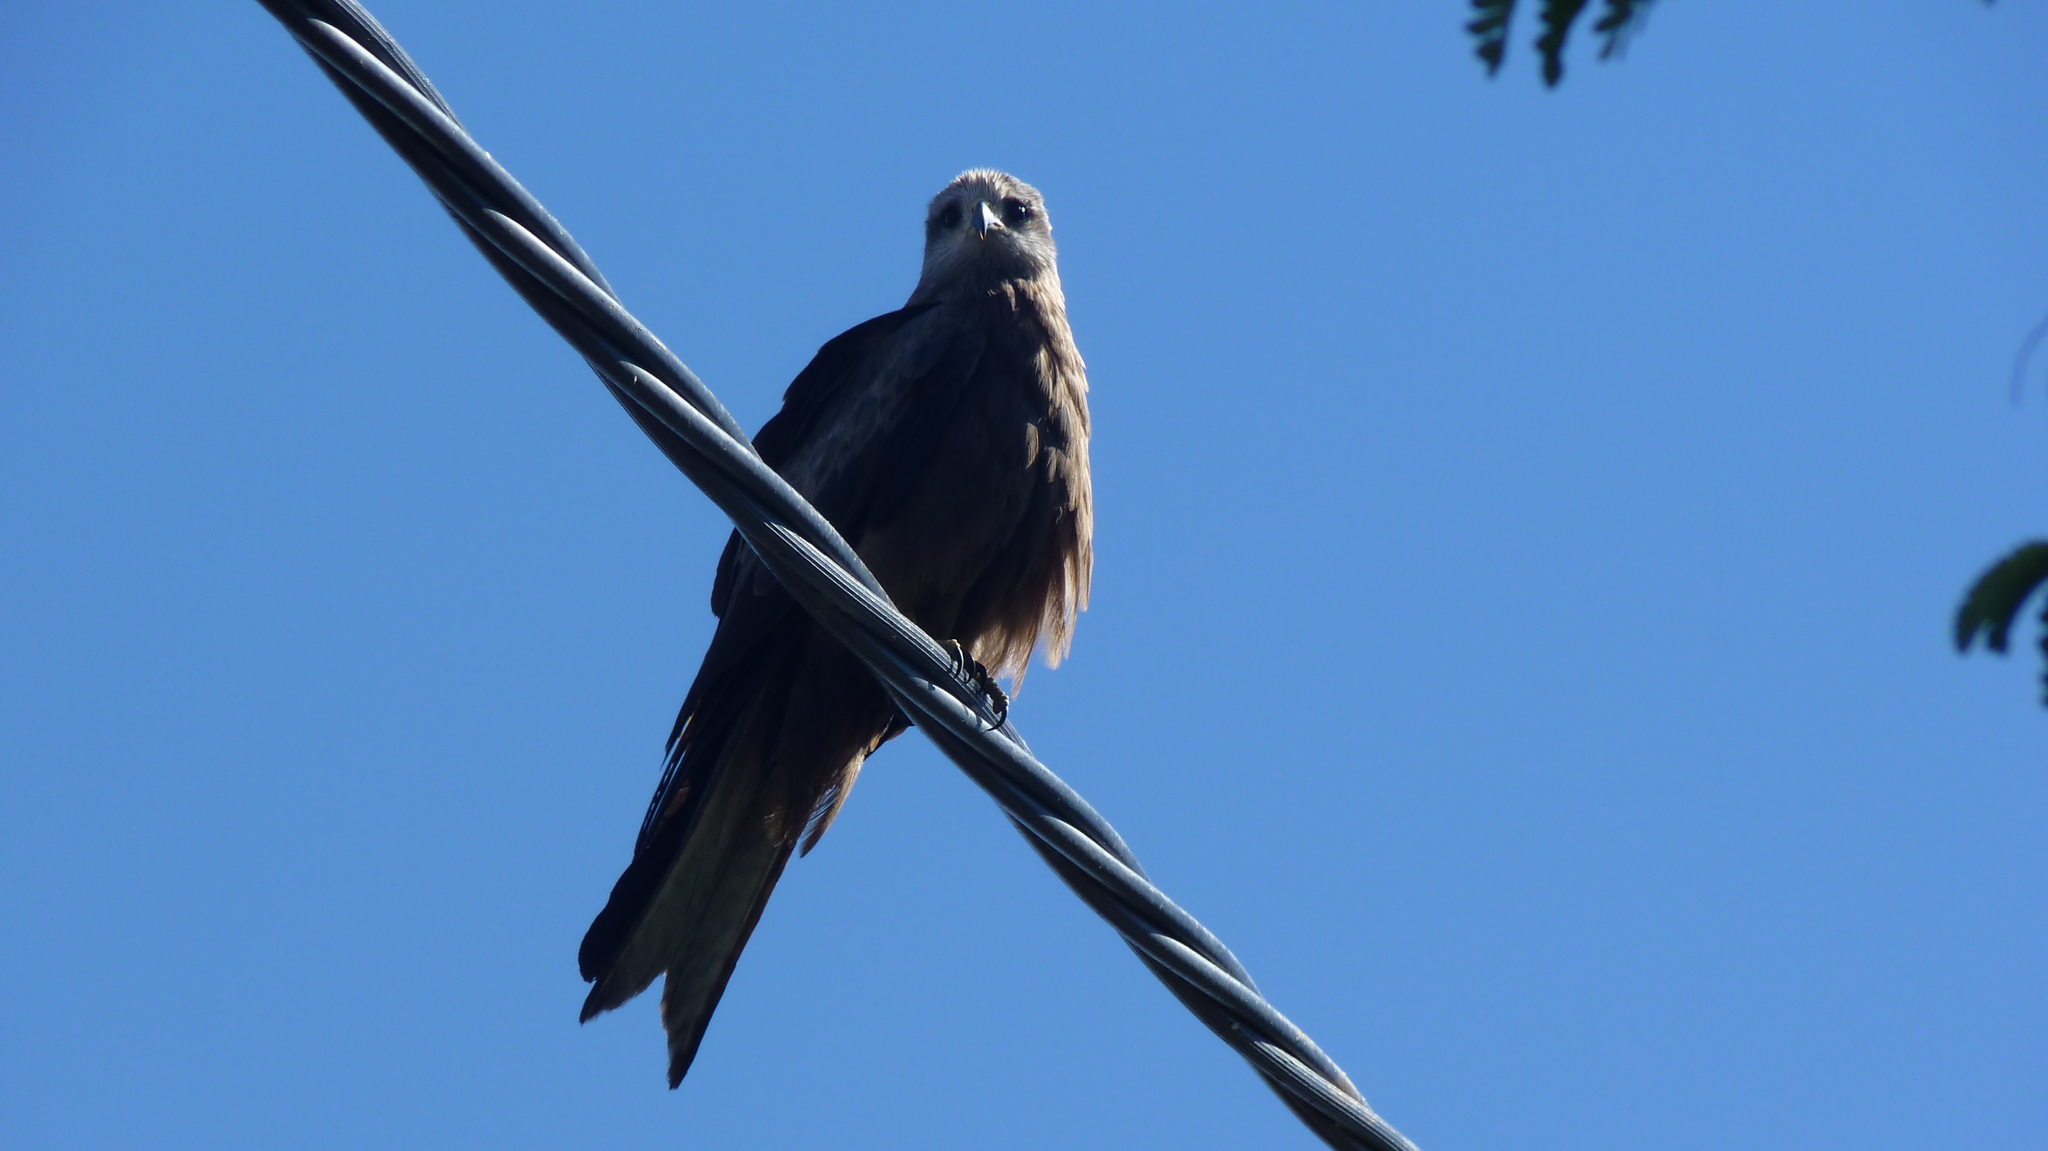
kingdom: Animalia
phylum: Chordata
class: Aves
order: Accipitriformes
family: Accipitridae
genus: Milvus
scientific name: Milvus migrans
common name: Black kite
